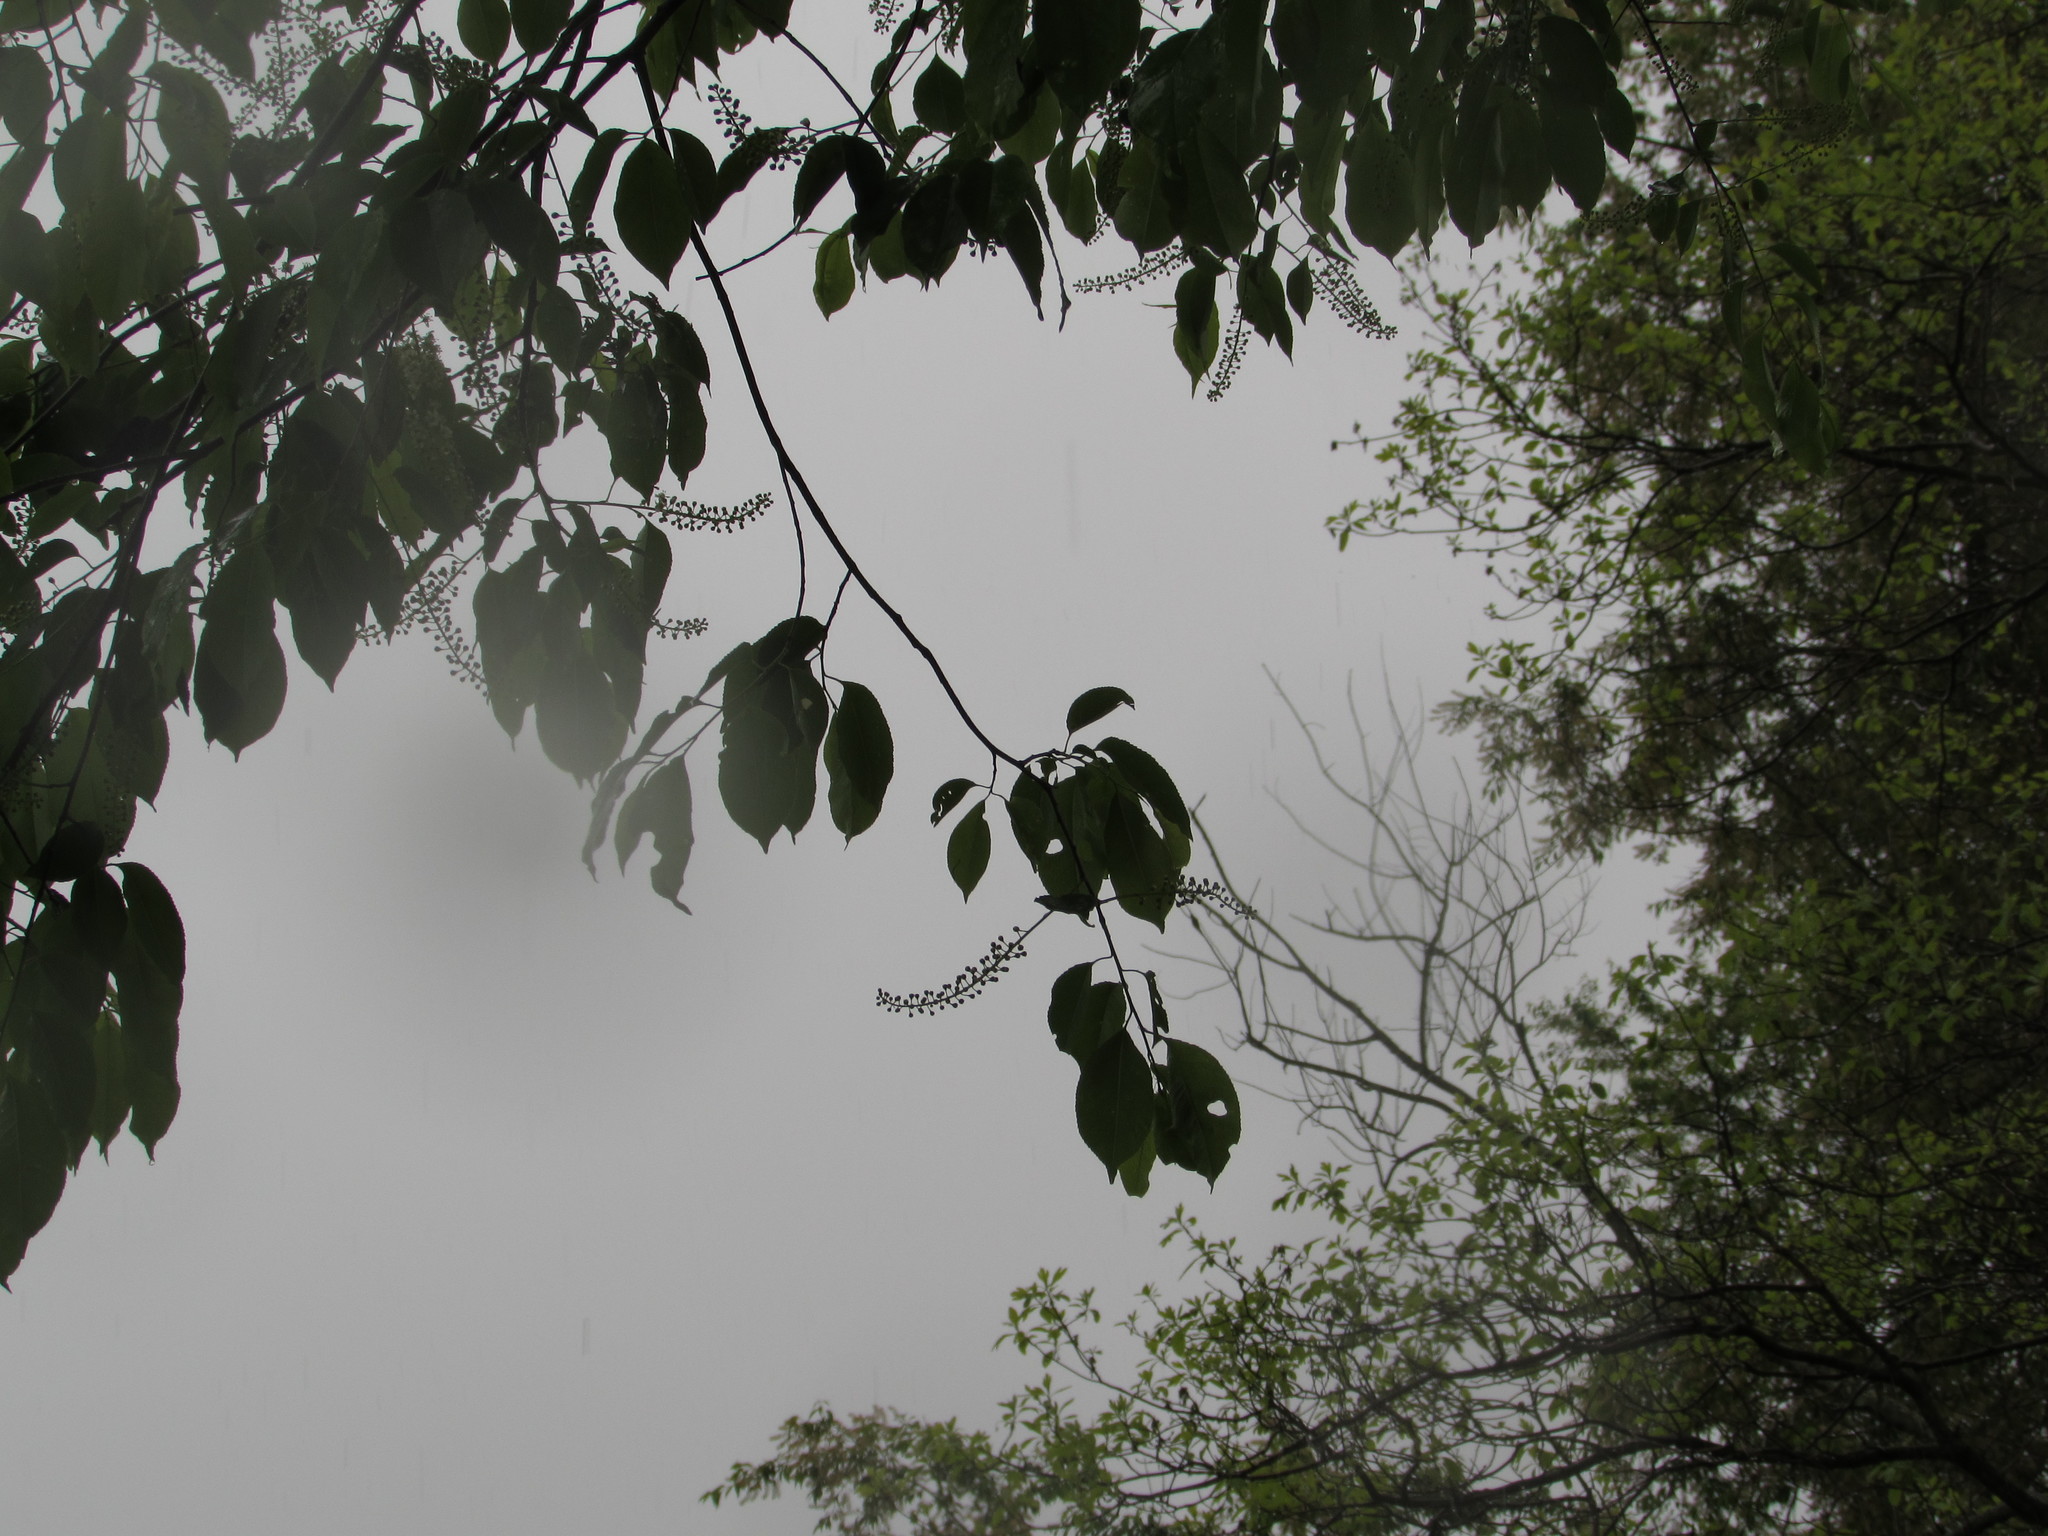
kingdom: Plantae
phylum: Tracheophyta
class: Magnoliopsida
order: Rosales
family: Rosaceae
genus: Prunus
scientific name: Prunus serotina
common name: Black cherry
